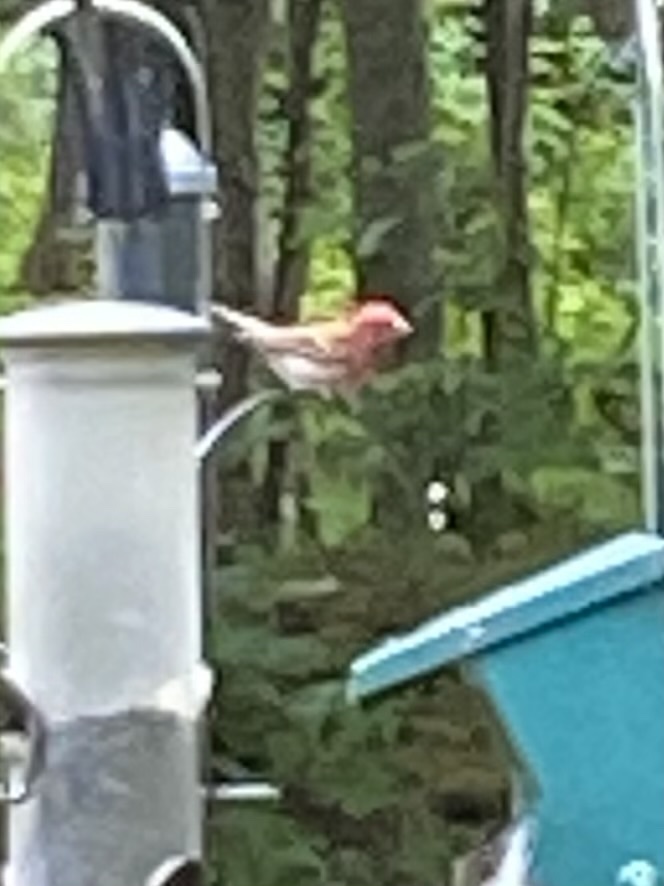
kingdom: Animalia
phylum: Chordata
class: Aves
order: Passeriformes
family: Fringillidae
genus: Haemorhous
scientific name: Haemorhous purpureus
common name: Purple finch
